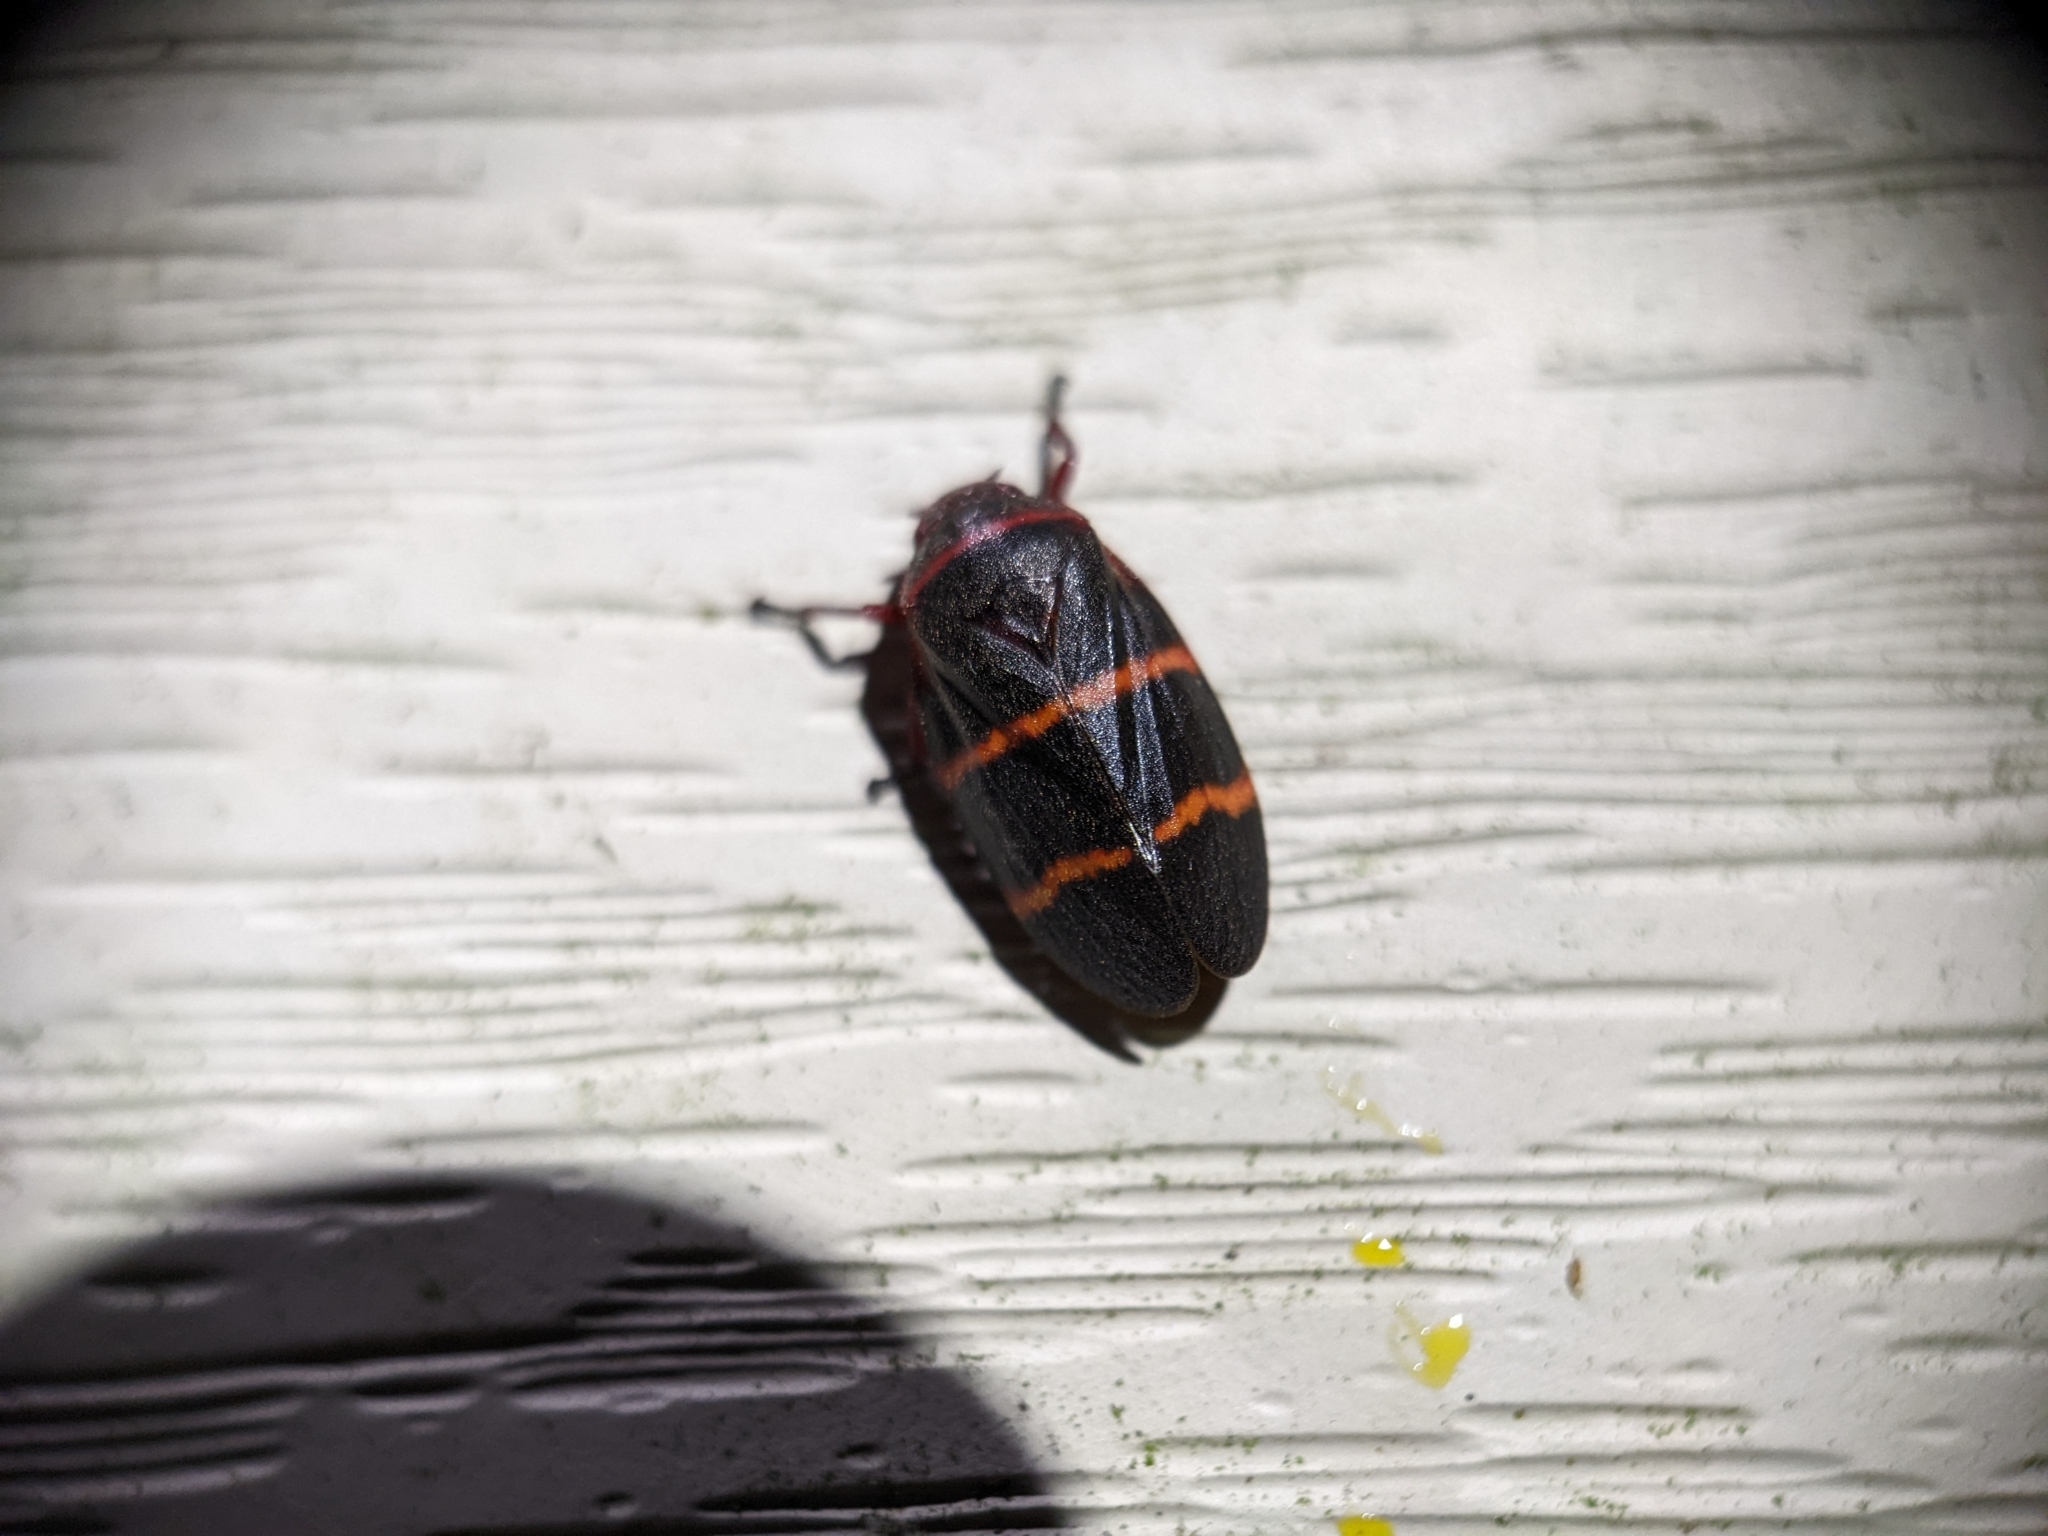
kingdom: Animalia
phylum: Arthropoda
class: Insecta
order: Hemiptera
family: Cercopidae
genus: Prosapia
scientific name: Prosapia bicincta
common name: Twolined spittlebug
